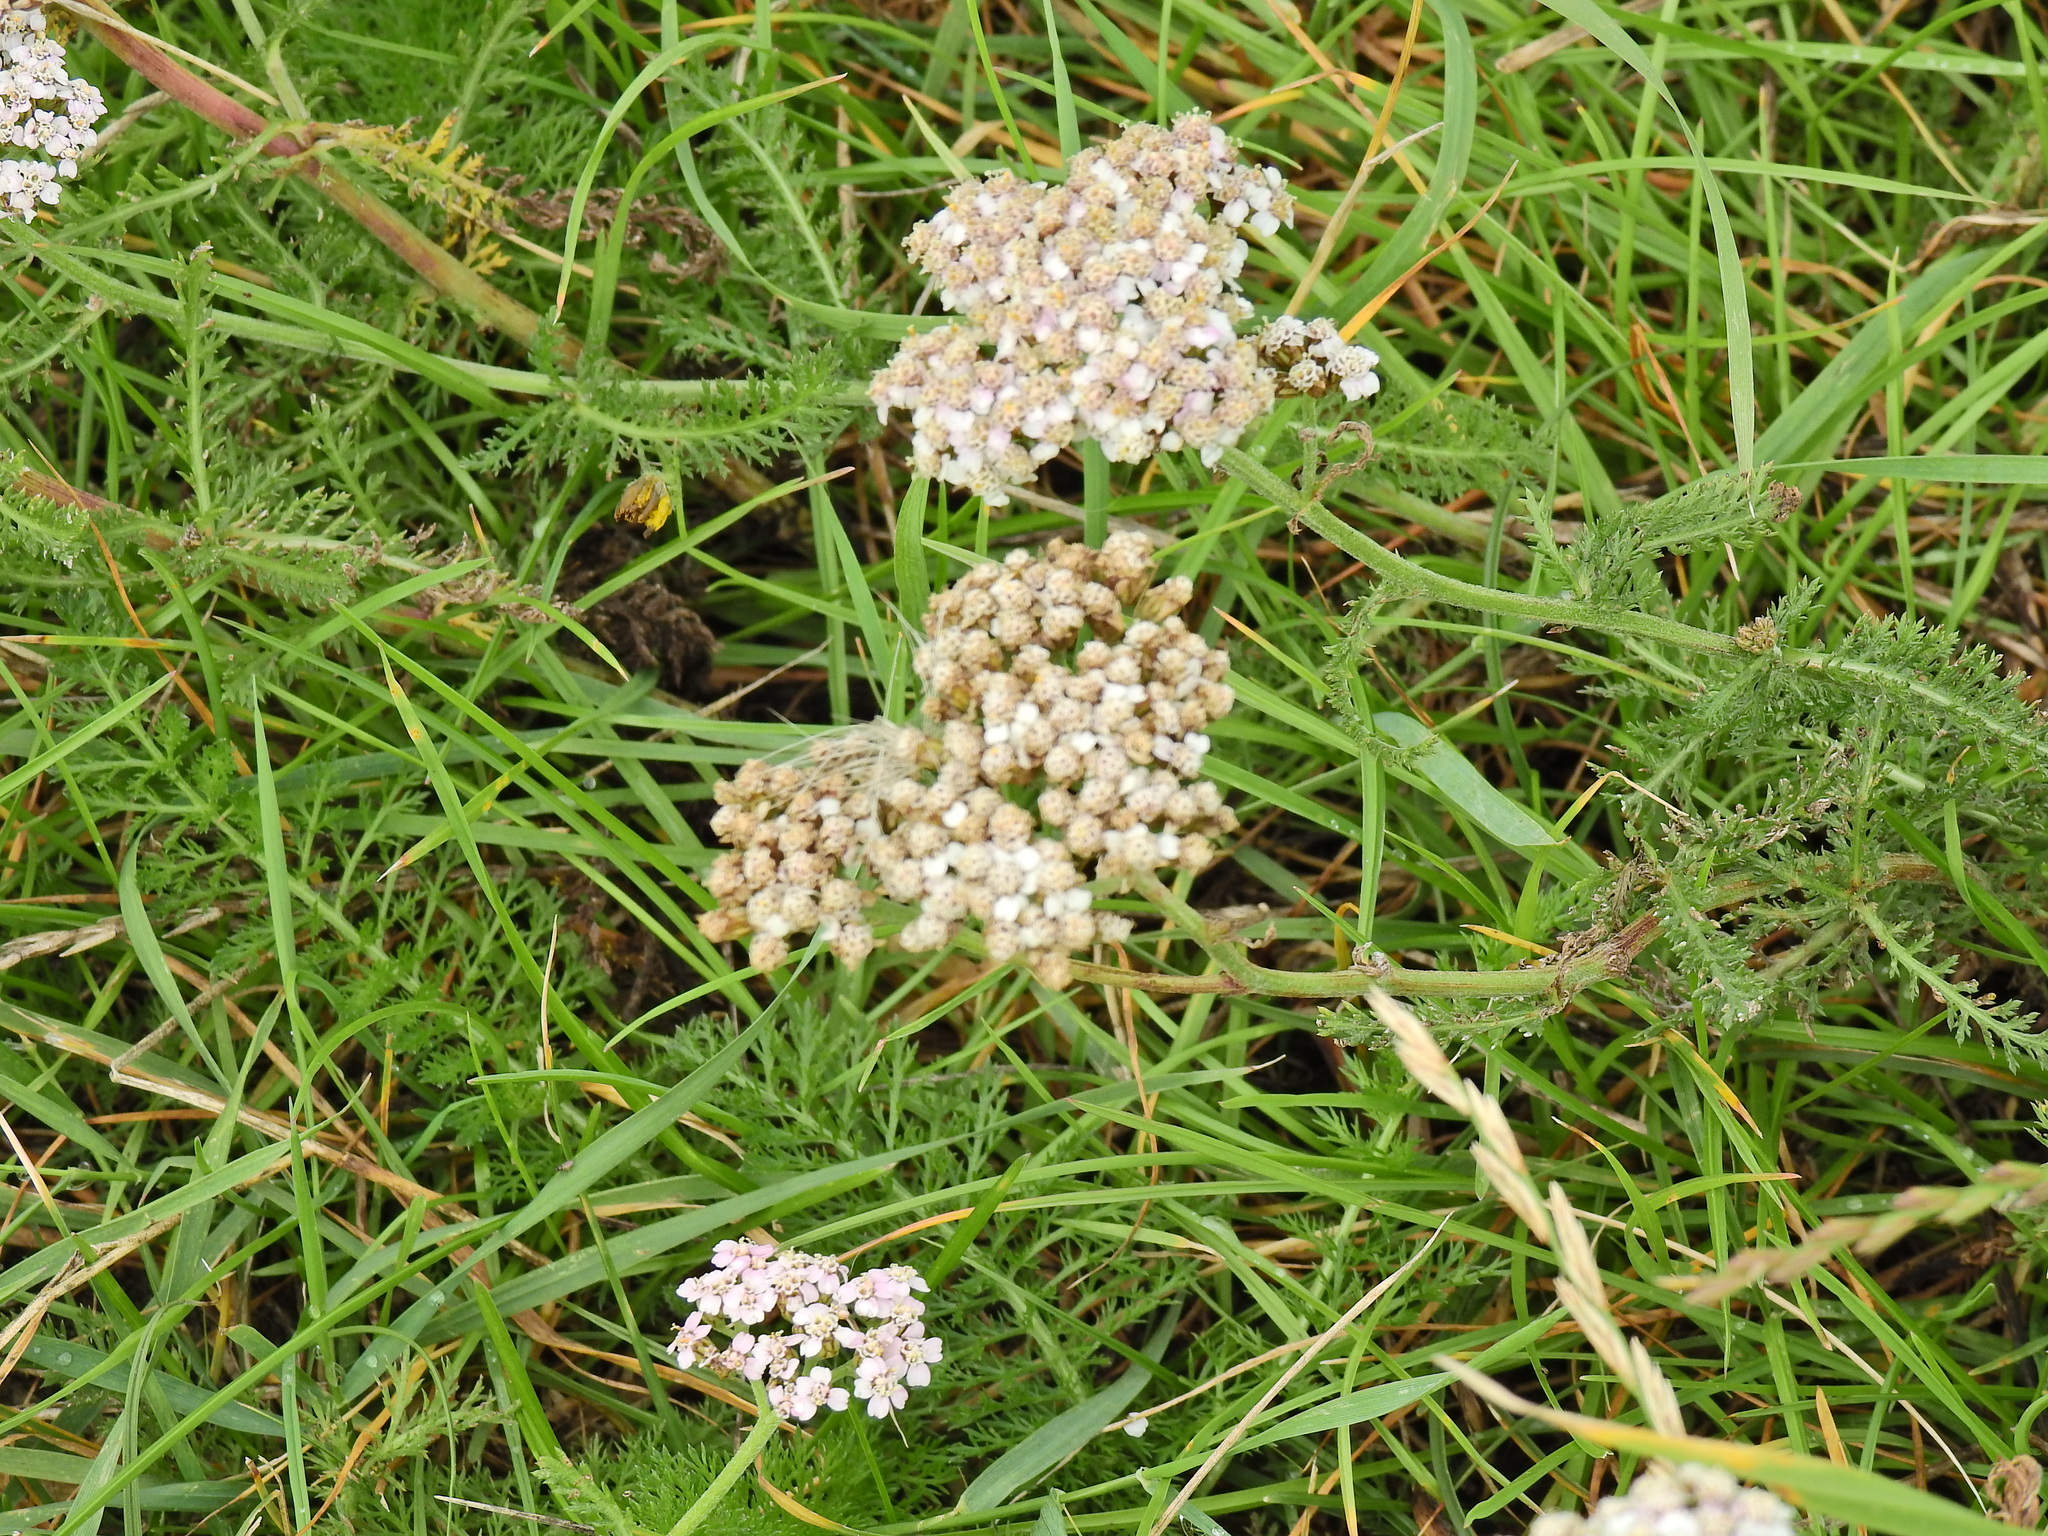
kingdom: Plantae
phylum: Tracheophyta
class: Magnoliopsida
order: Asterales
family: Asteraceae
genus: Achillea
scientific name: Achillea millefolium
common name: Yarrow
